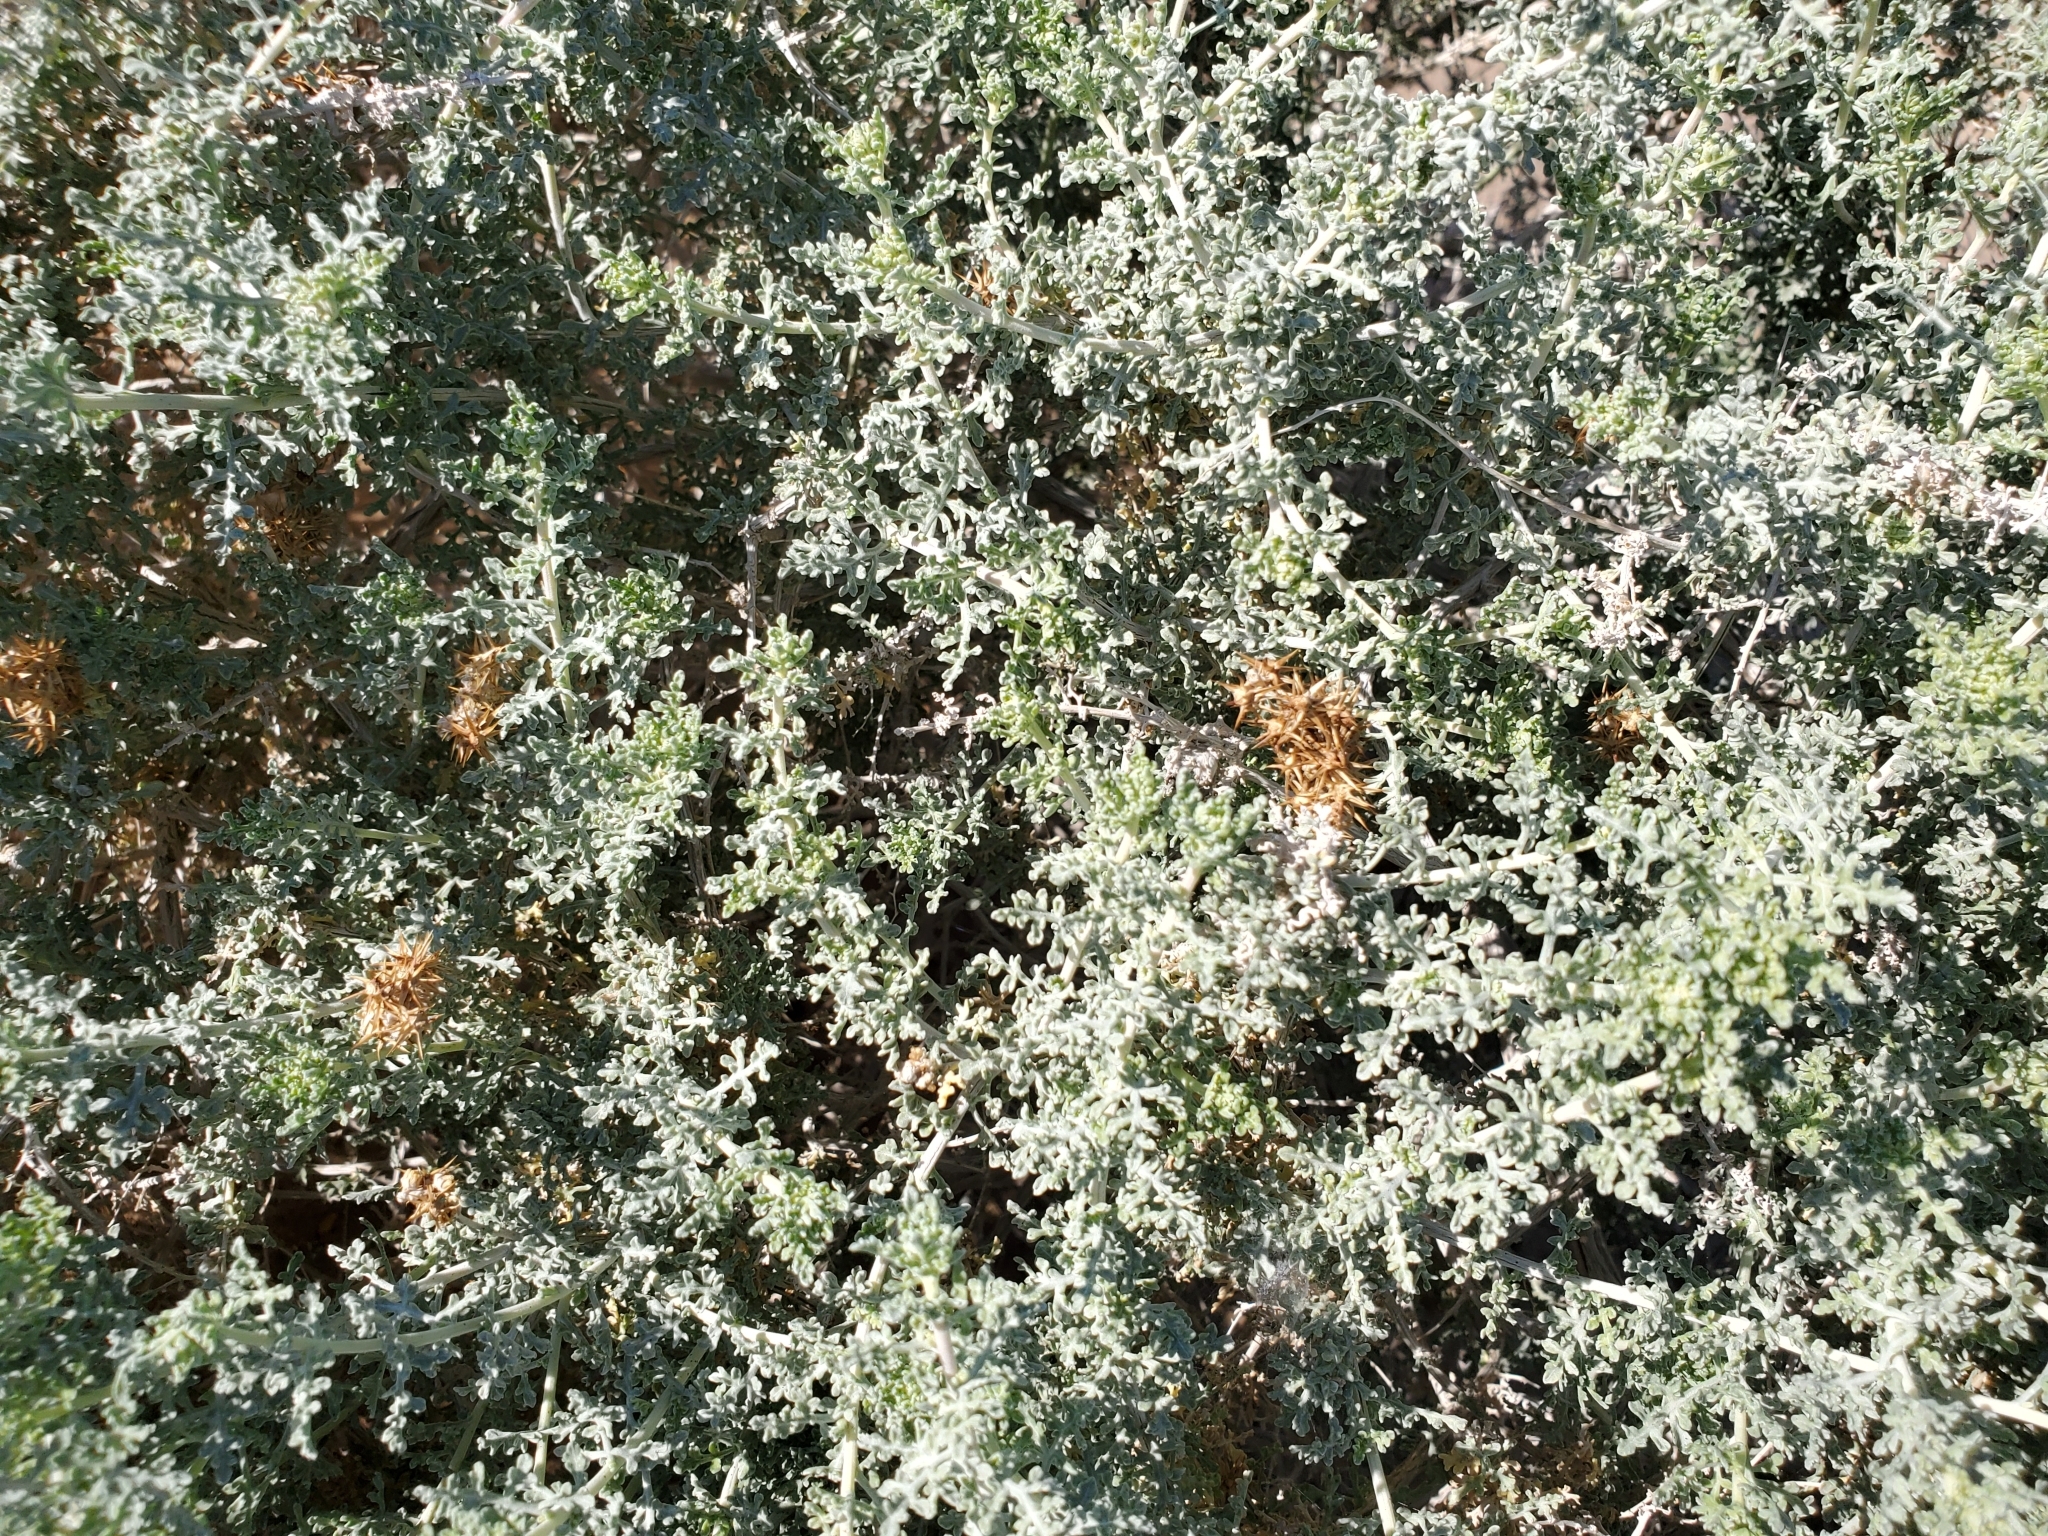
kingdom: Plantae
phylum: Tracheophyta
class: Magnoliopsida
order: Asterales
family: Asteraceae
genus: Ambrosia
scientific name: Ambrosia dumosa
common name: Bur-sage
